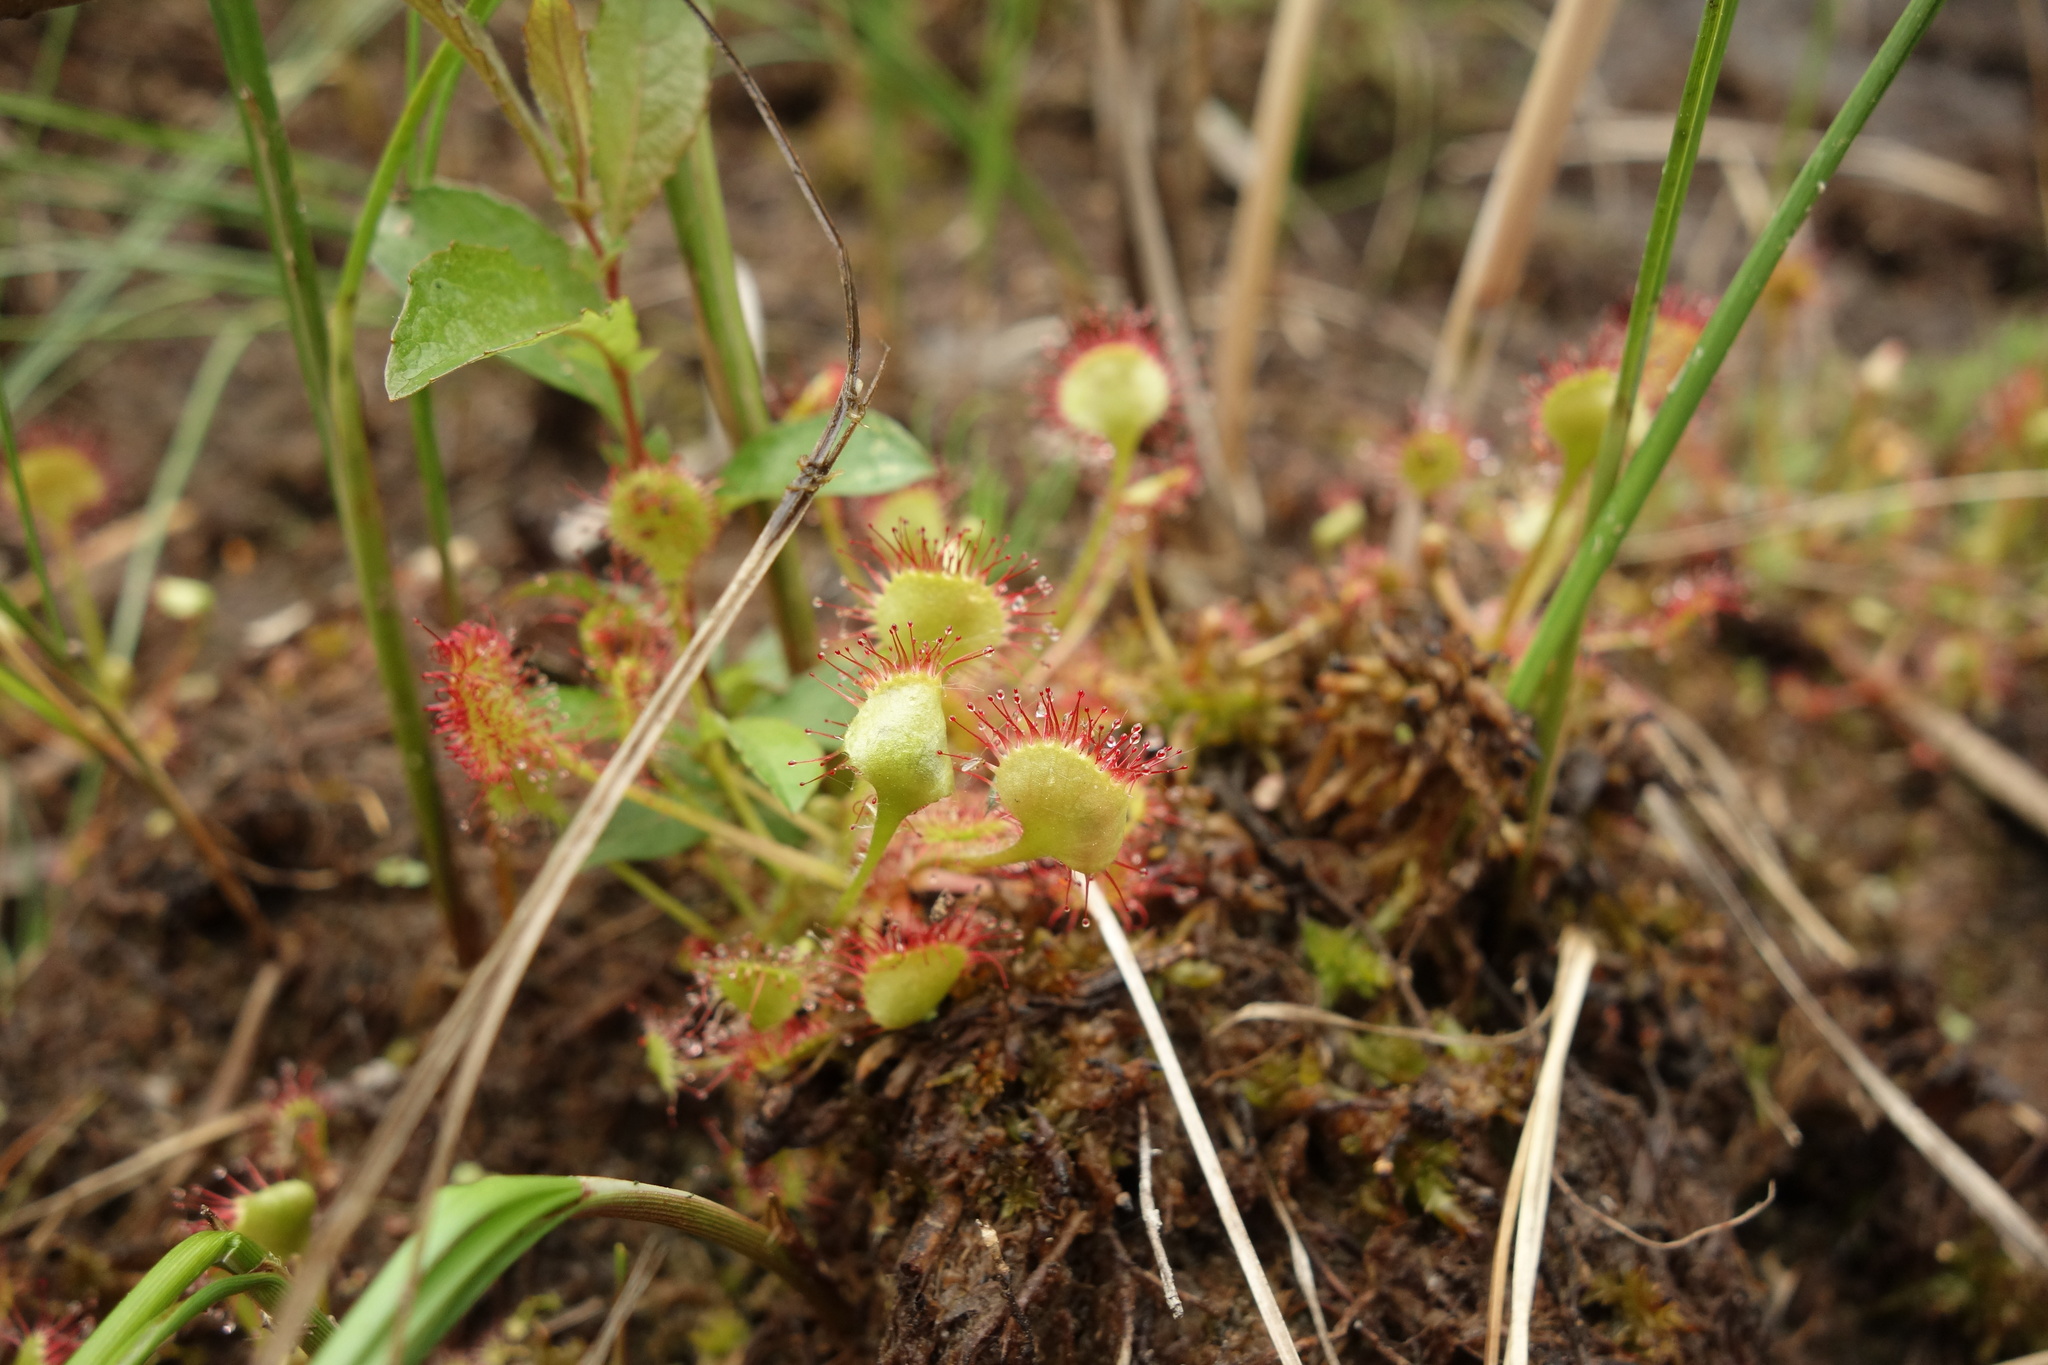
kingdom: Plantae
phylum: Tracheophyta
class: Magnoliopsida
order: Caryophyllales
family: Droseraceae
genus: Drosera
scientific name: Drosera rotundifolia
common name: Round-leaved sundew
